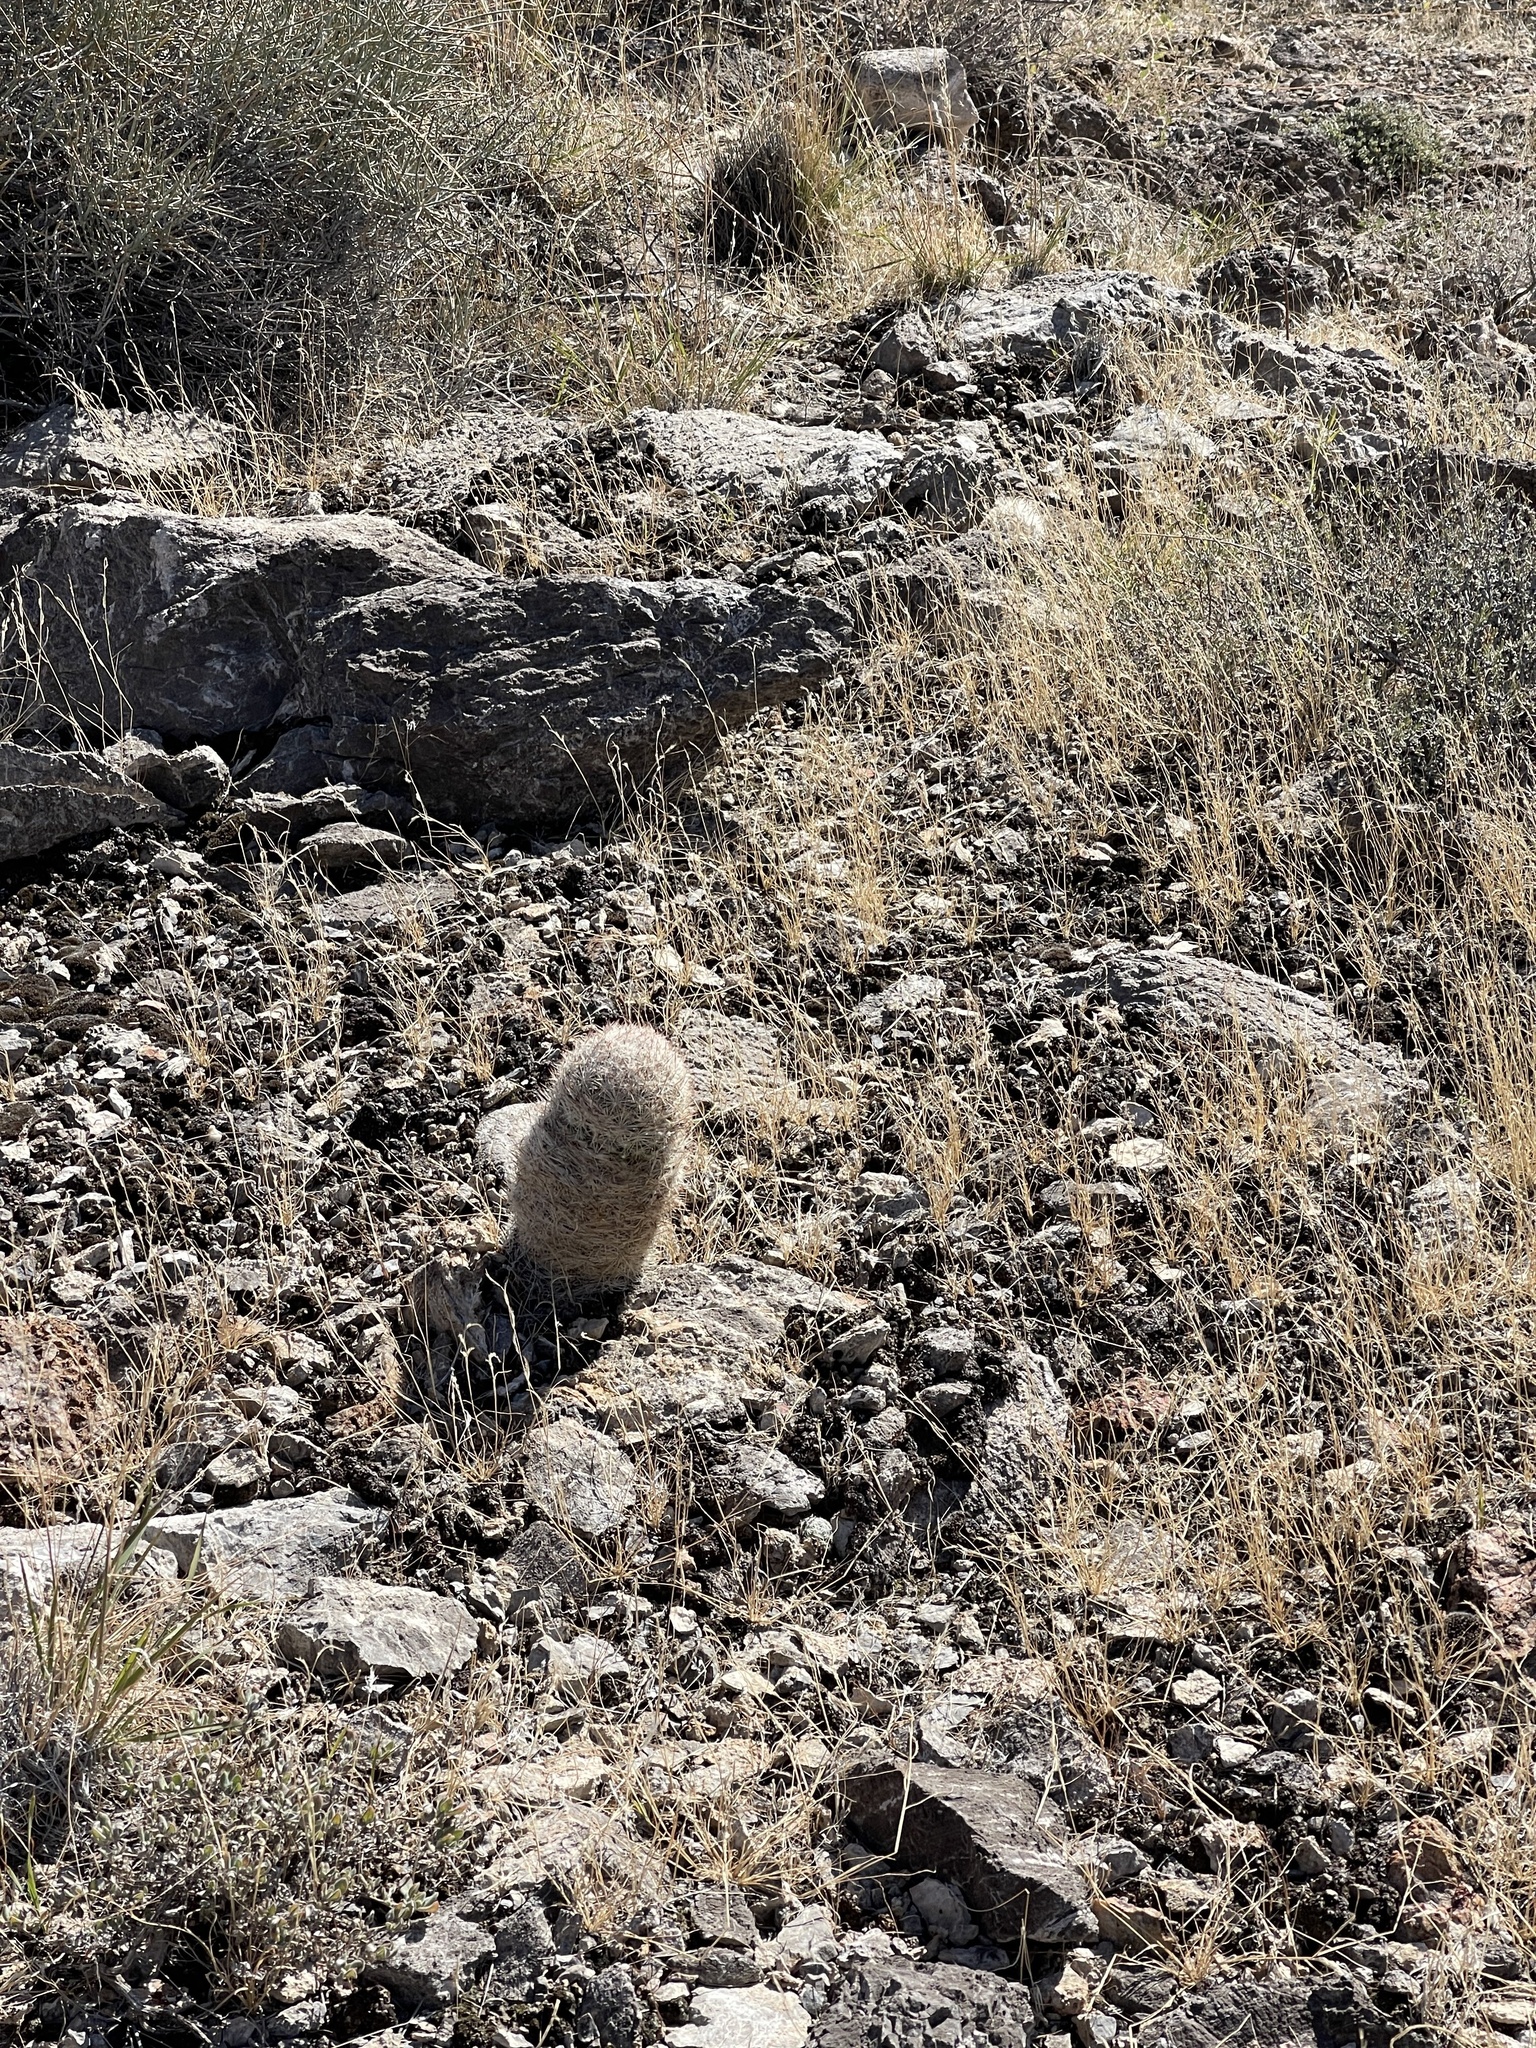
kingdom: Plantae
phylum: Tracheophyta
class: Magnoliopsida
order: Caryophyllales
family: Cactaceae
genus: Pelecyphora
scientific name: Pelecyphora dasyacantha
